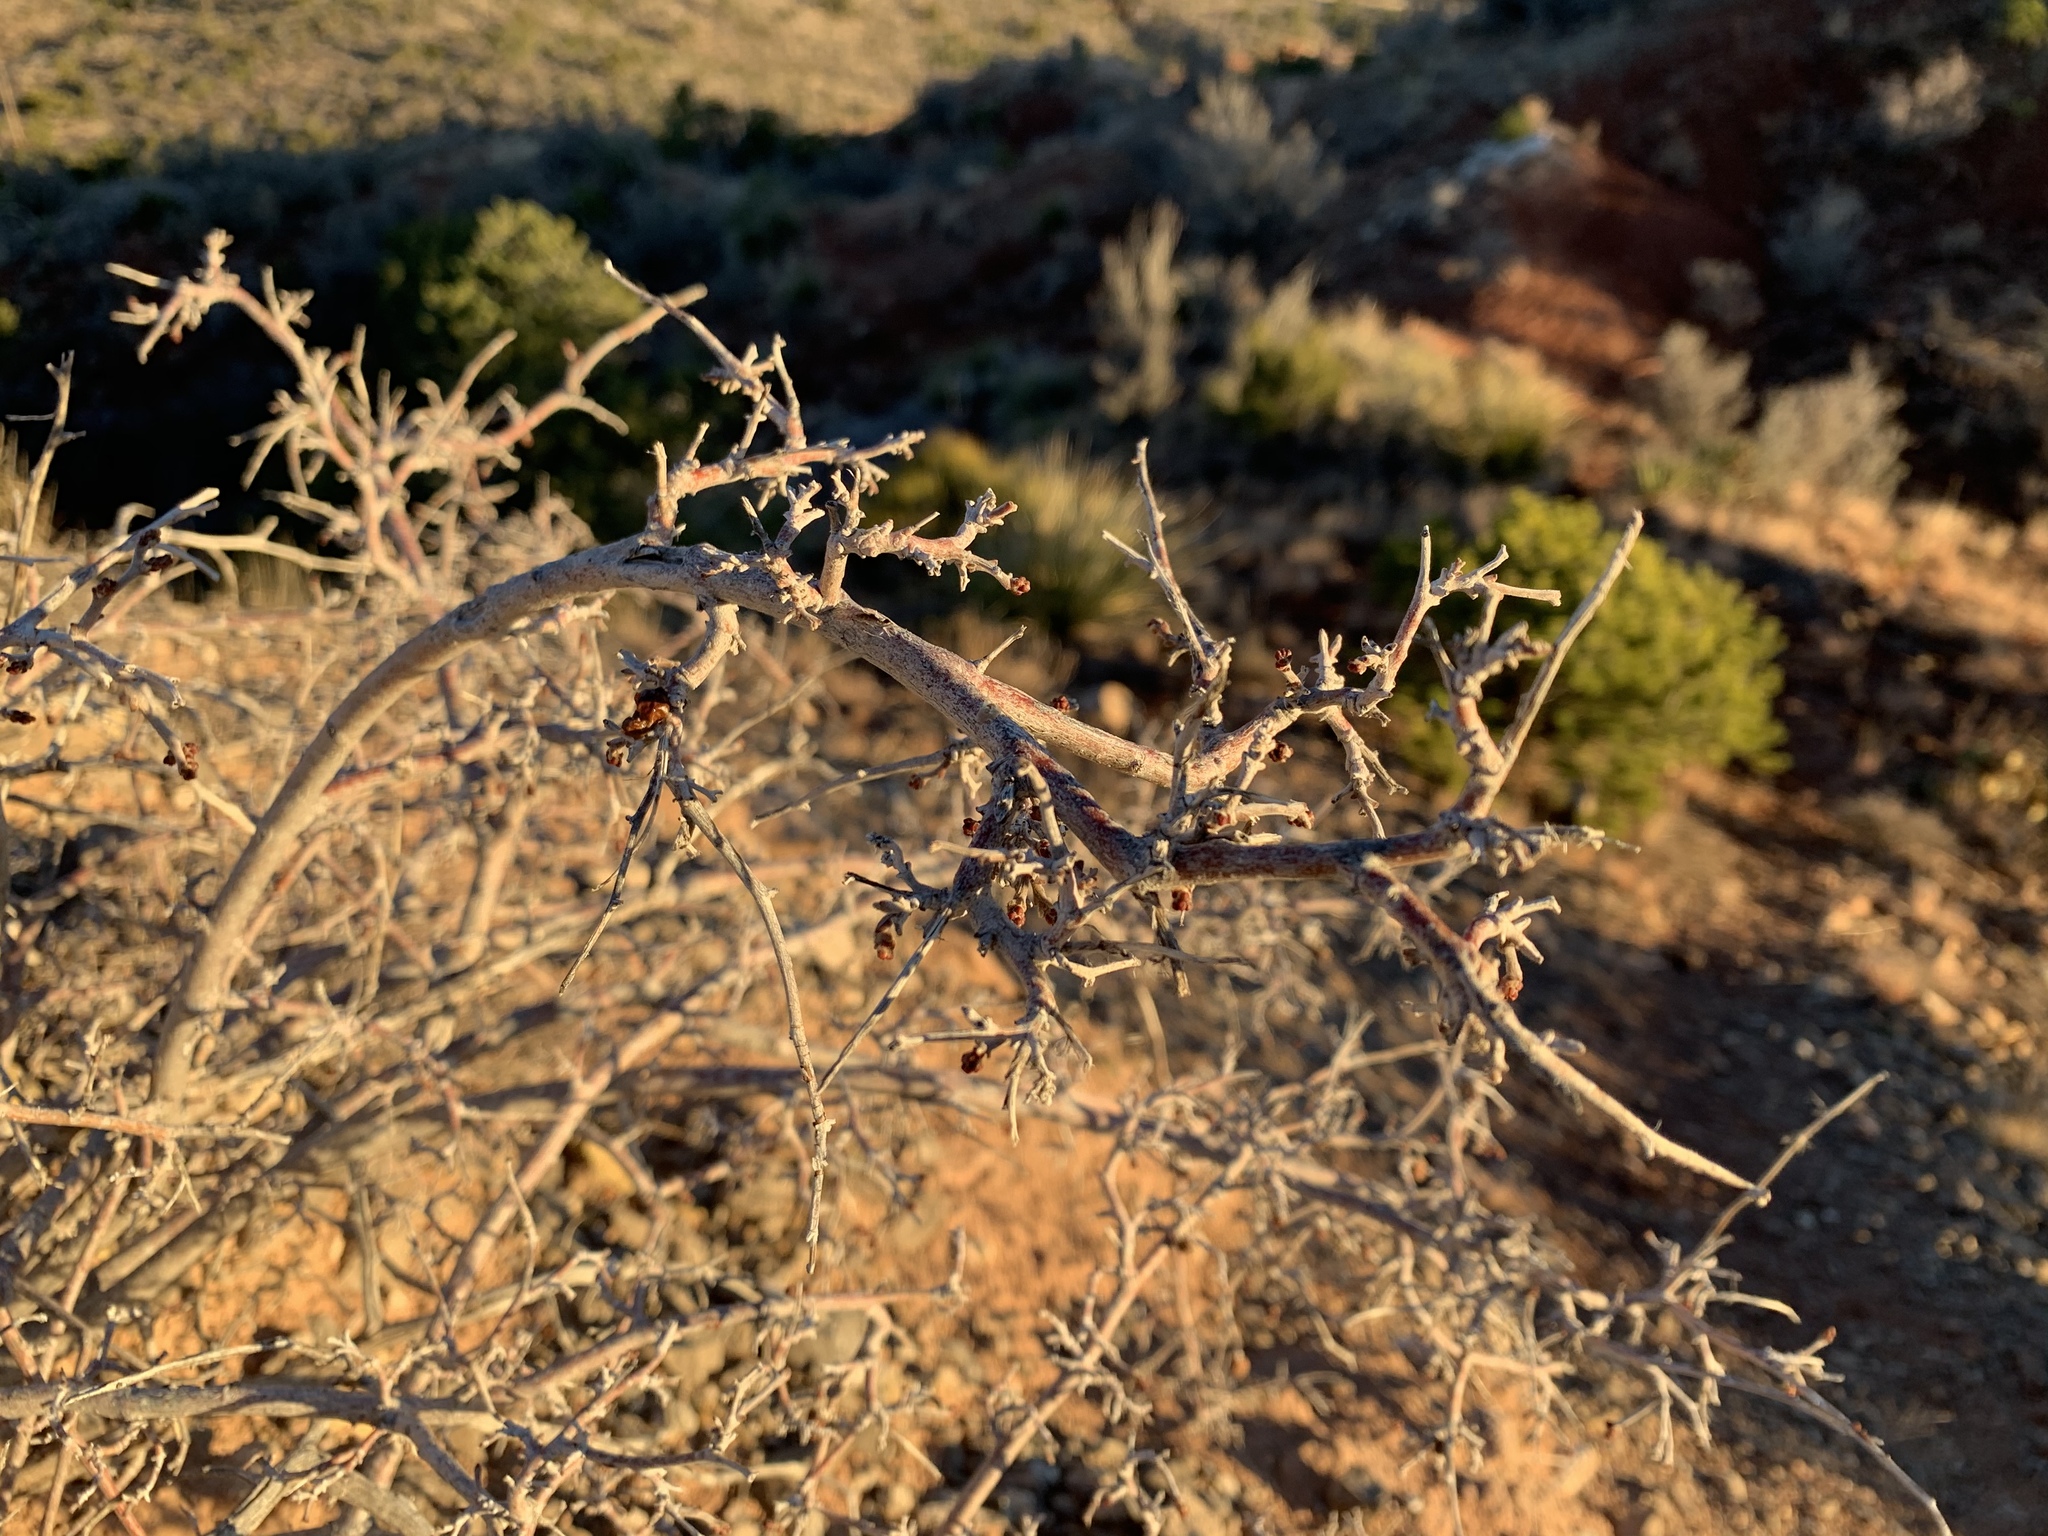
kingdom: Plantae
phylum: Tracheophyta
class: Magnoliopsida
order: Sapindales
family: Anacardiaceae
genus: Rhus
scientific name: Rhus microphylla
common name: Desert sumac
